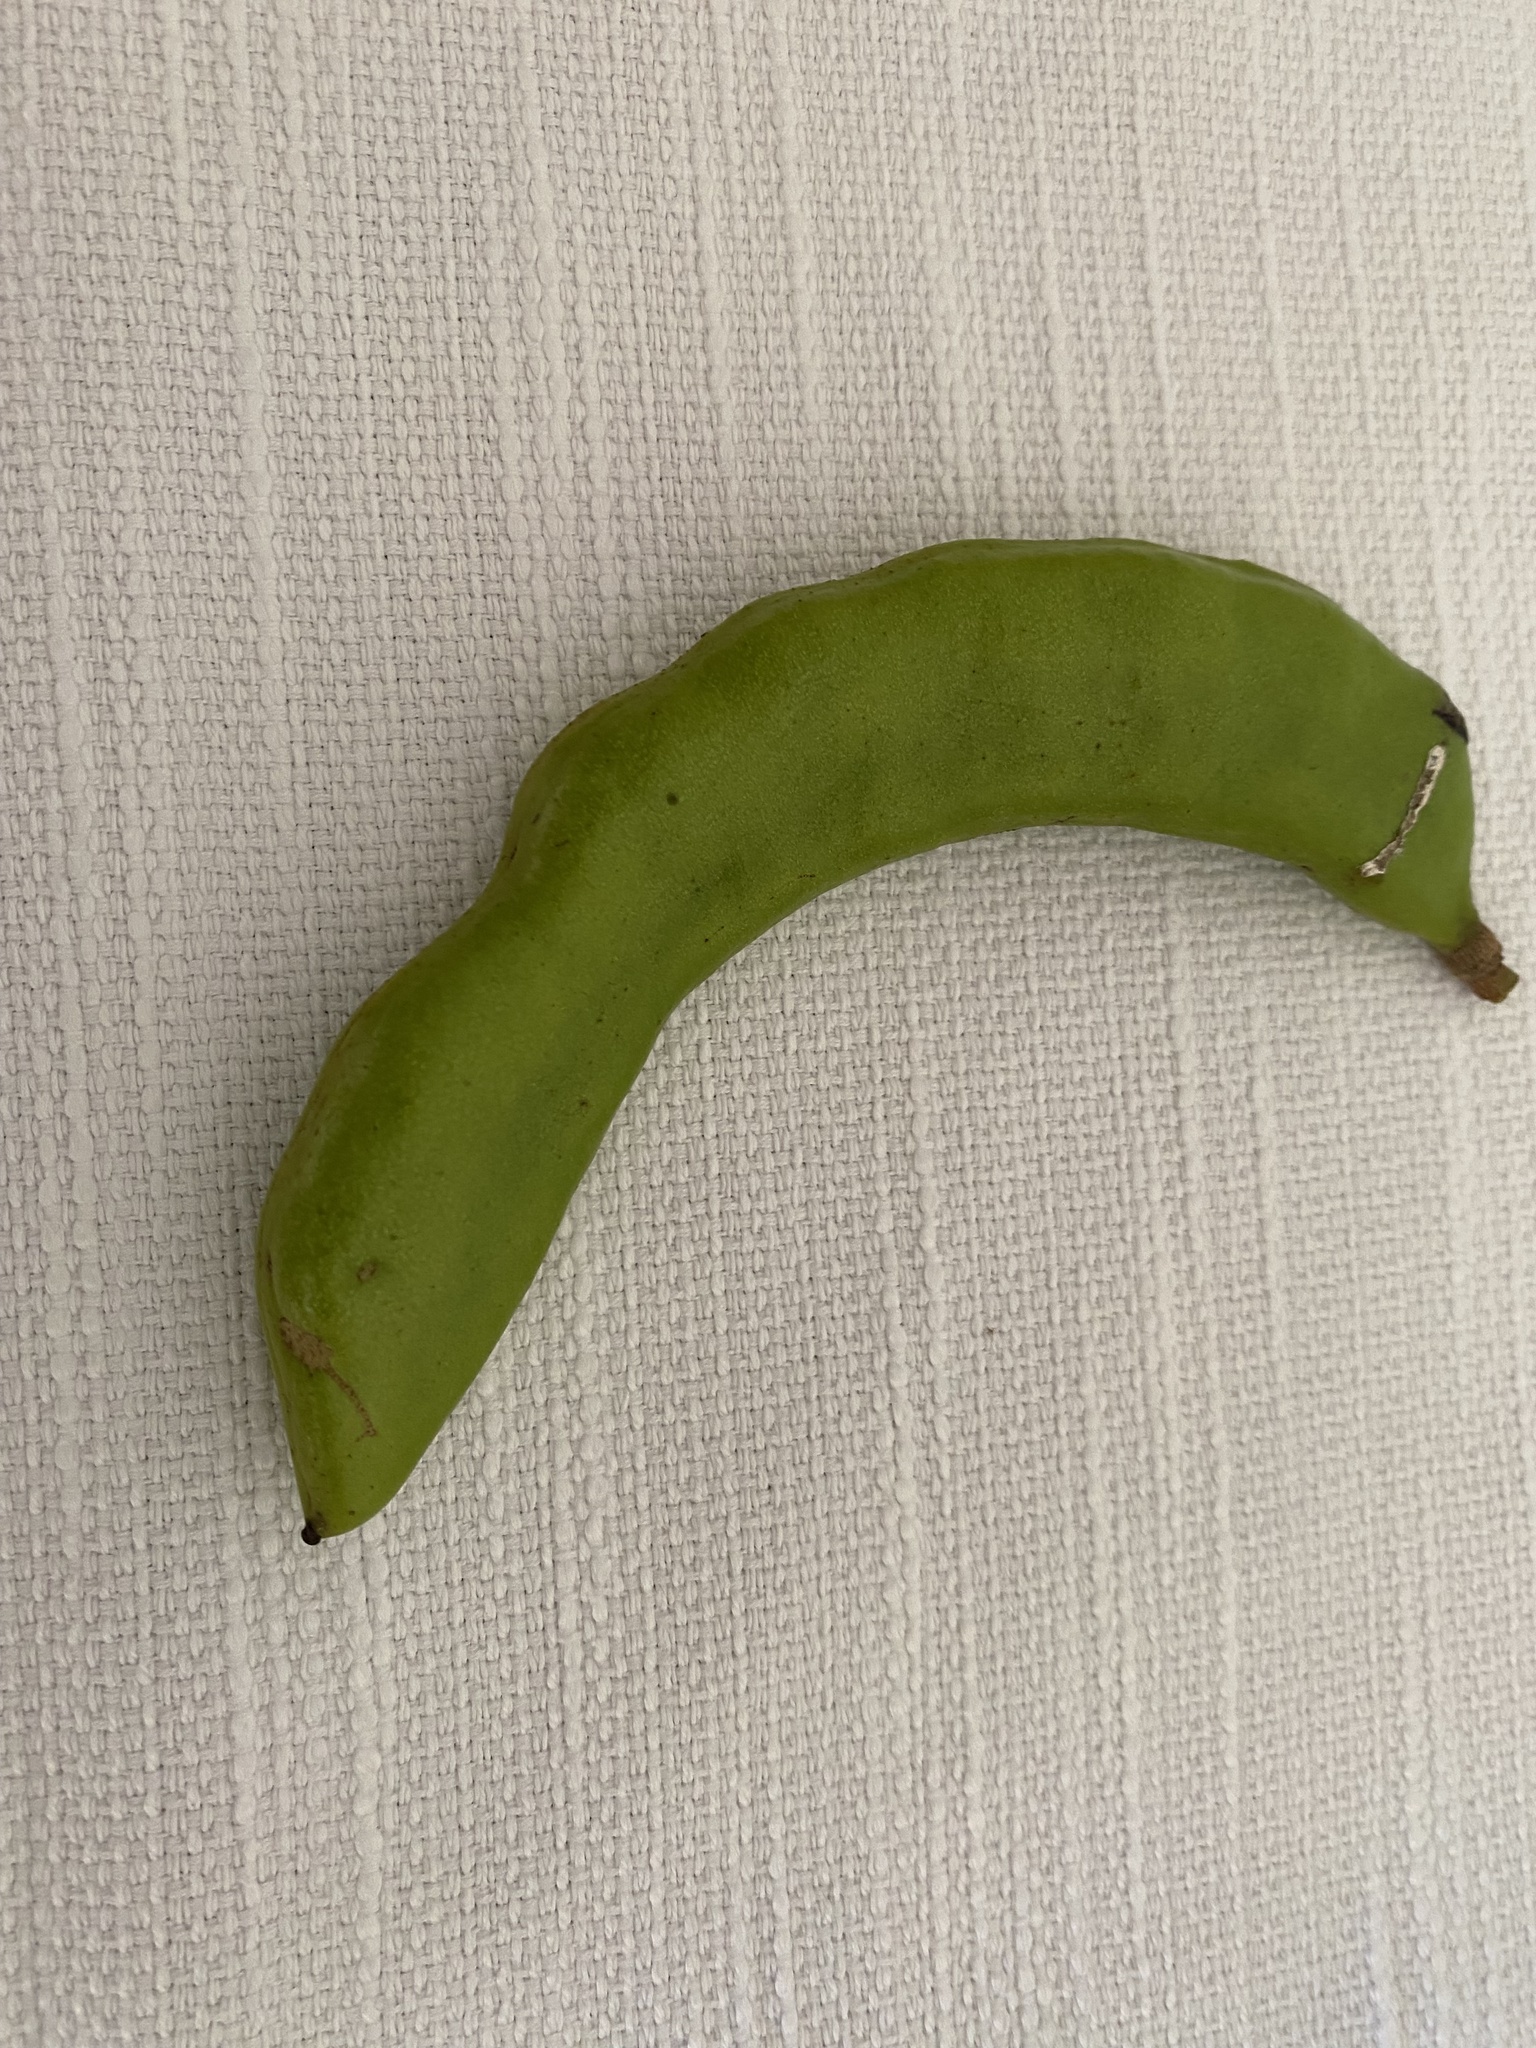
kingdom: Plantae
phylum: Tracheophyta
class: Magnoliopsida
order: Fabales
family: Fabaceae
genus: Ceratonia
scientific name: Ceratonia siliqua
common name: Carob
